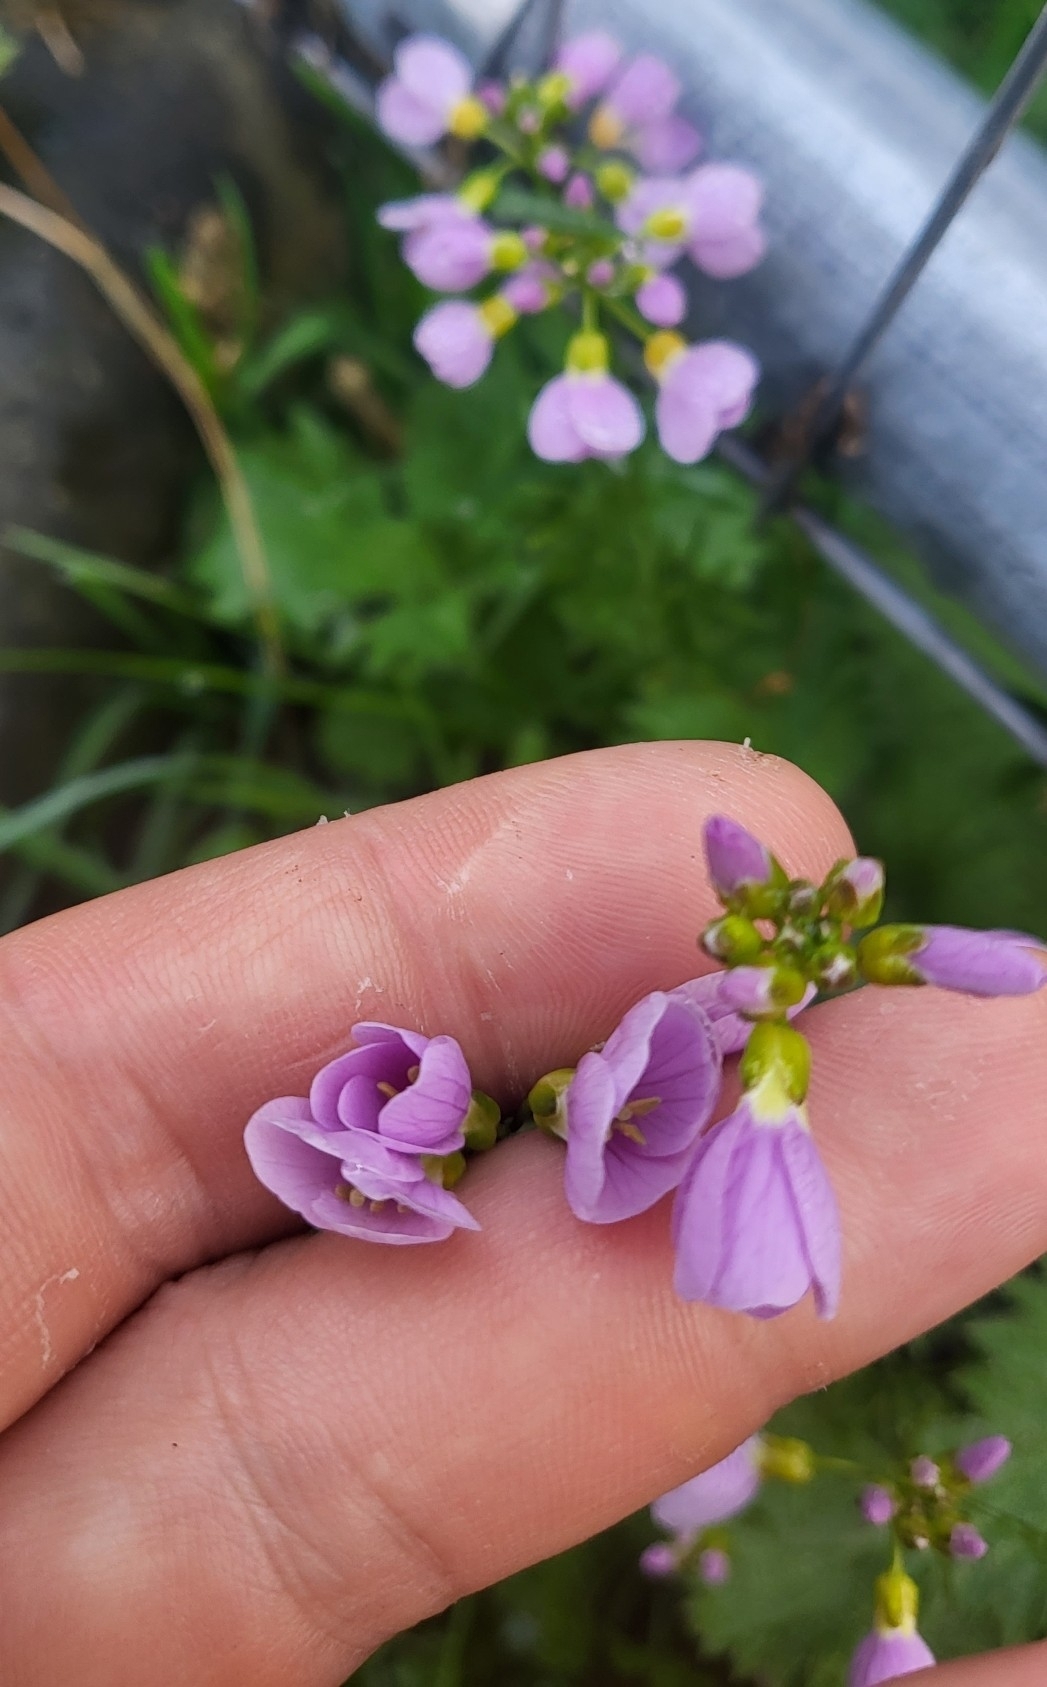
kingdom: Plantae
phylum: Tracheophyta
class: Magnoliopsida
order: Brassicales
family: Brassicaceae
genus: Cardamine
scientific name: Cardamine pratensis
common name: Cuckoo flower
